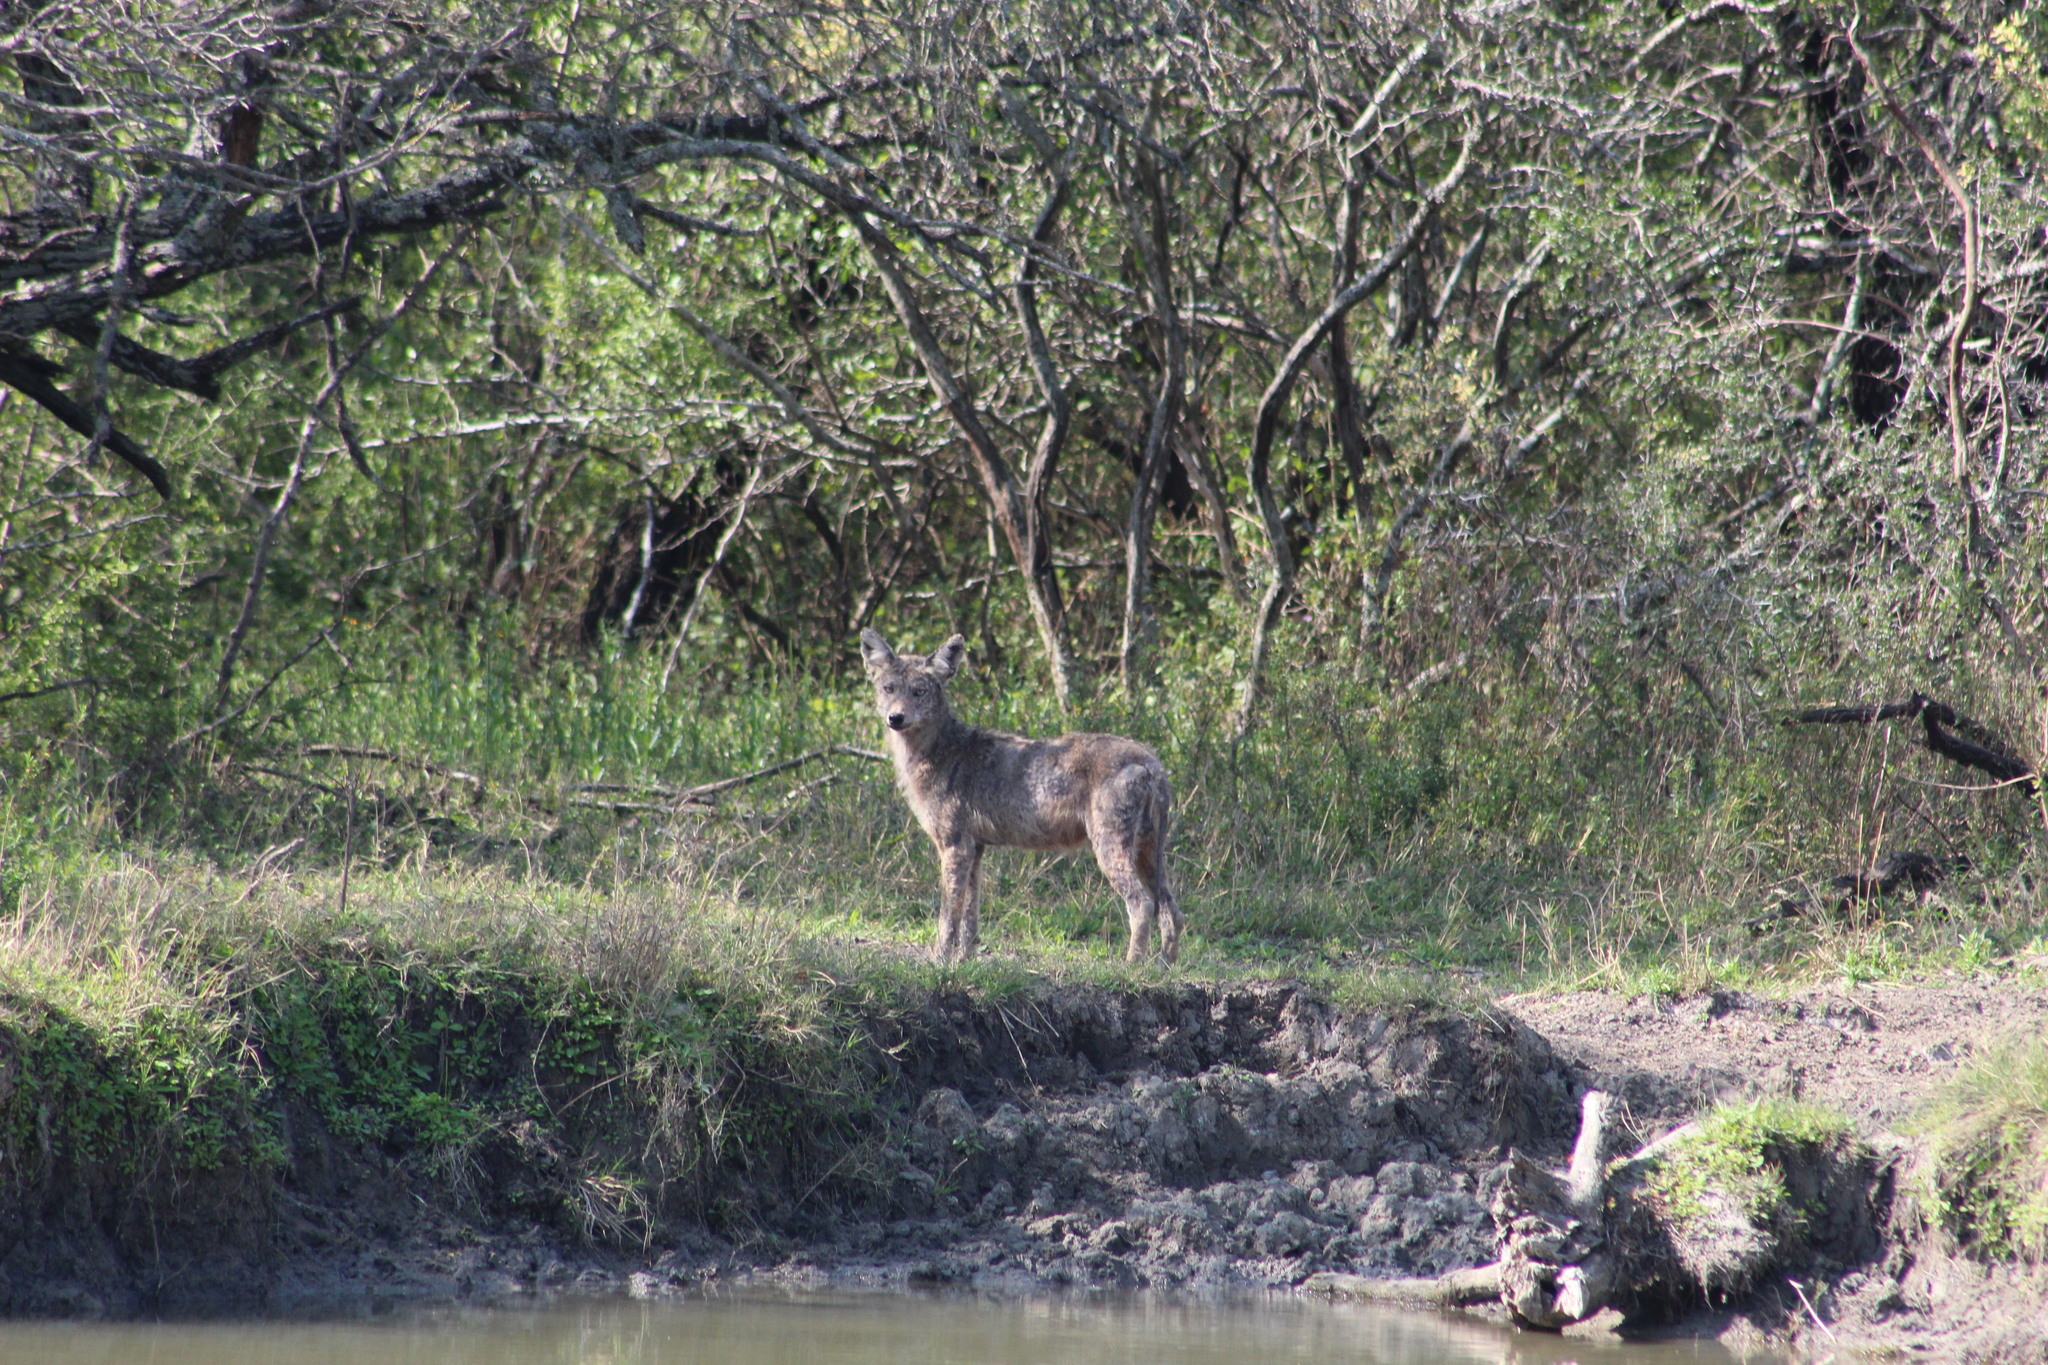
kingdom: Animalia
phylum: Chordata
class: Mammalia
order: Carnivora
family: Canidae
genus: Canis
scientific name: Canis latrans
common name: Coyote
